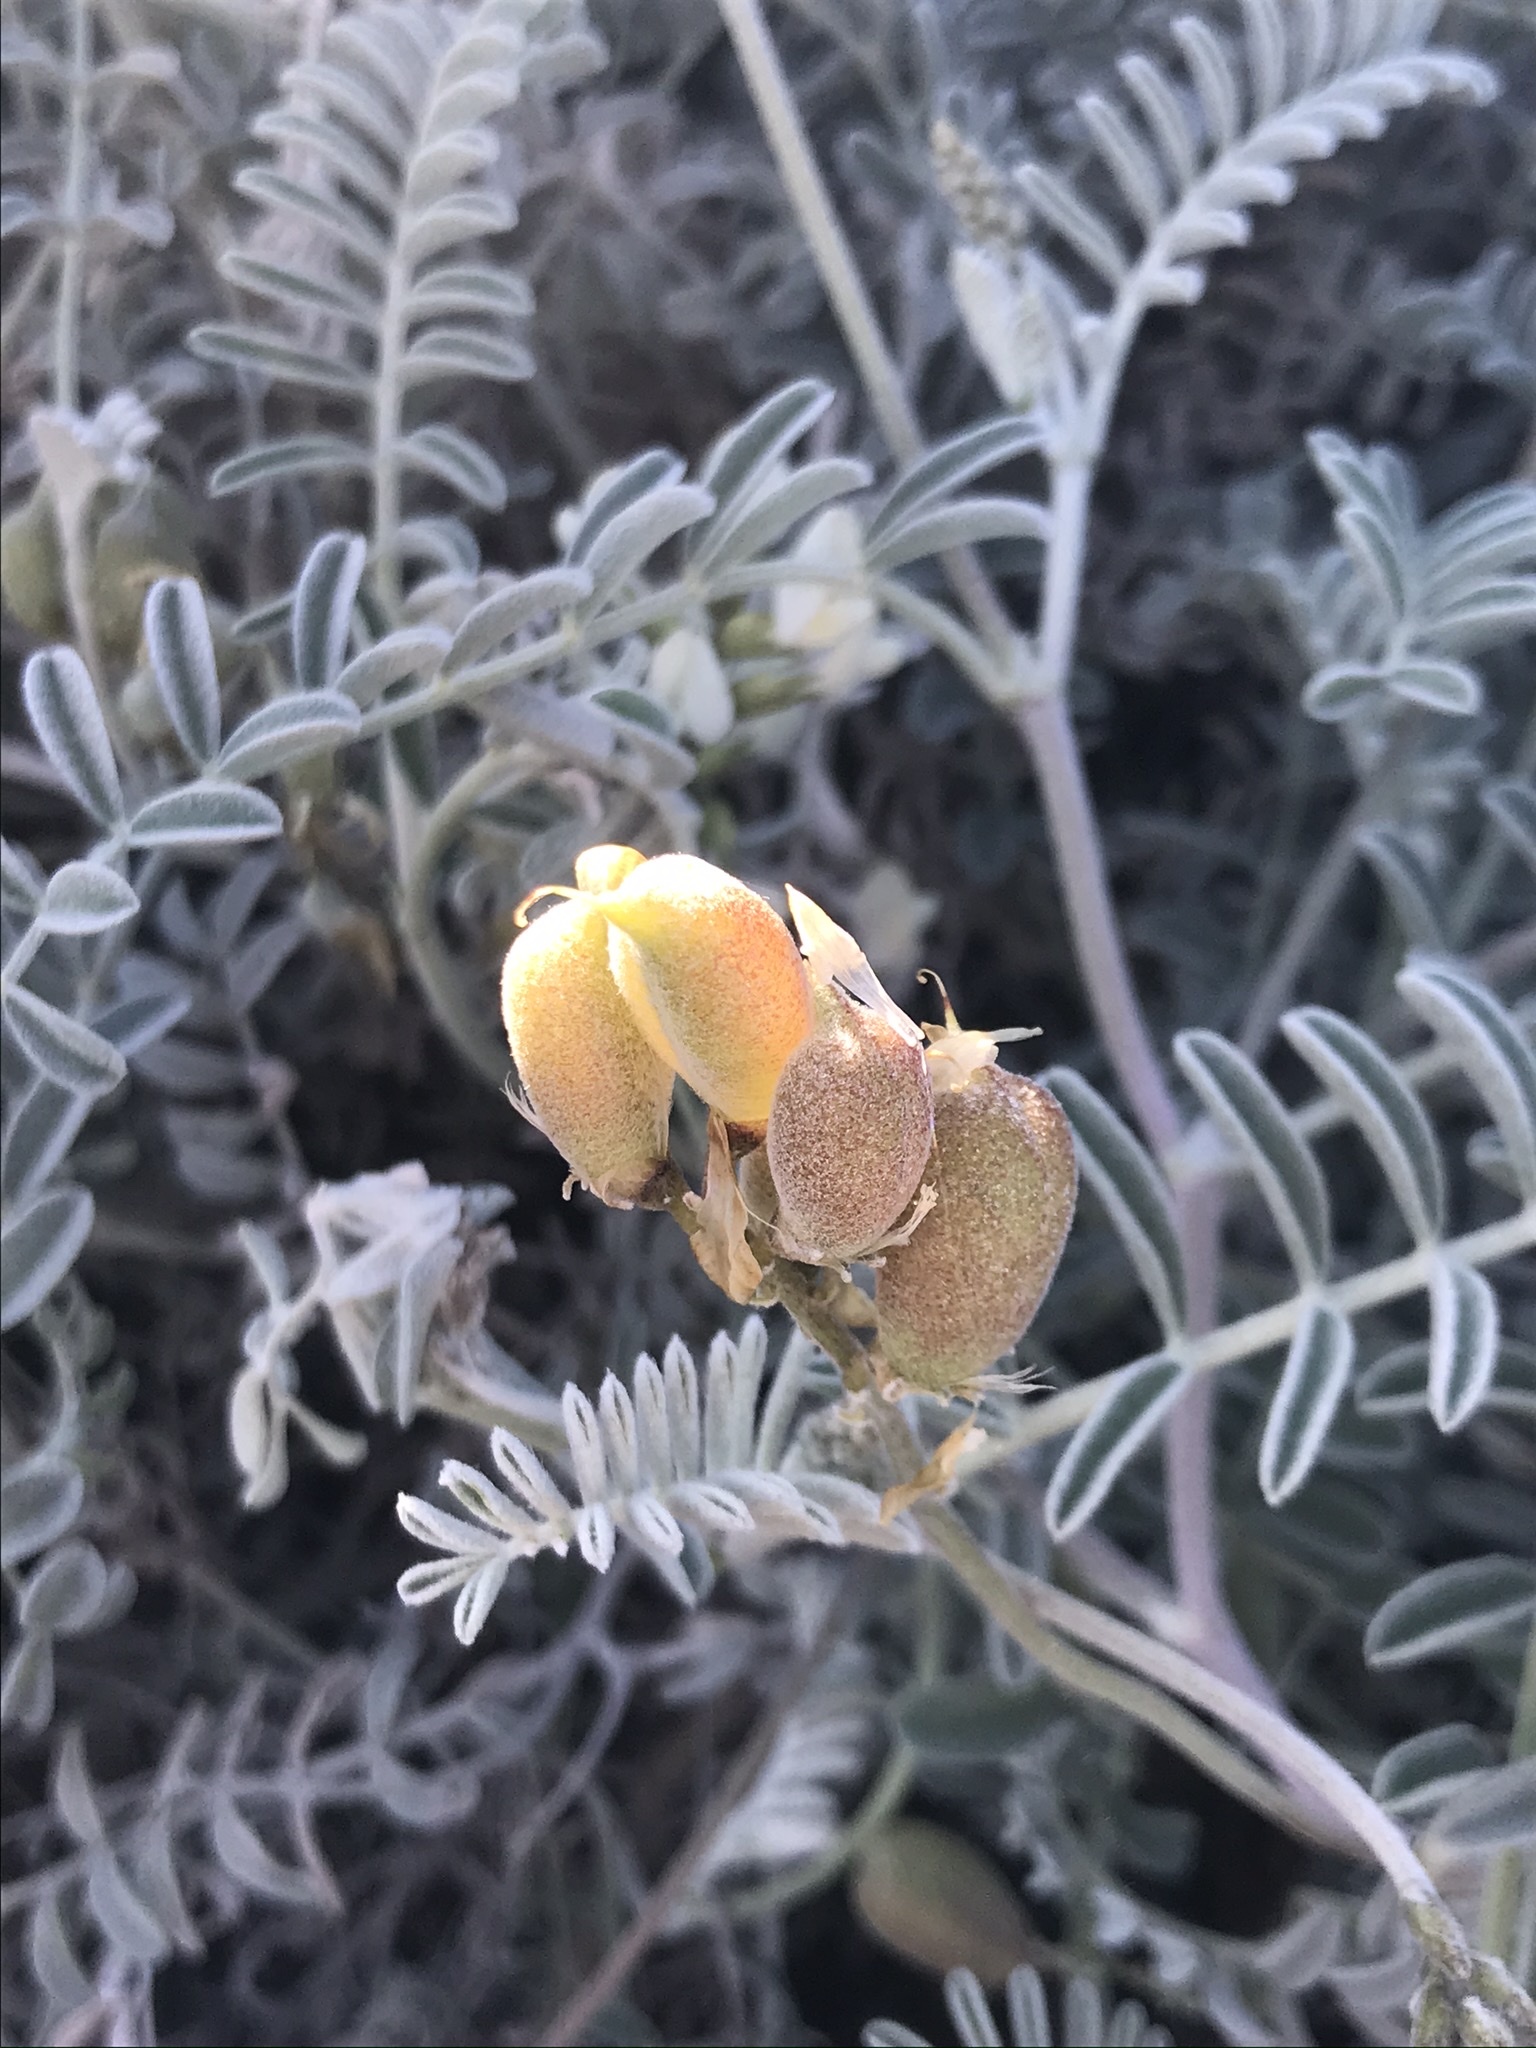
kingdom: Plantae
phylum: Tracheophyta
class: Magnoliopsida
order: Fabales
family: Fabaceae
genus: Astragalus
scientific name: Astragalus miguelensis
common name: San miguel milk-vetch
